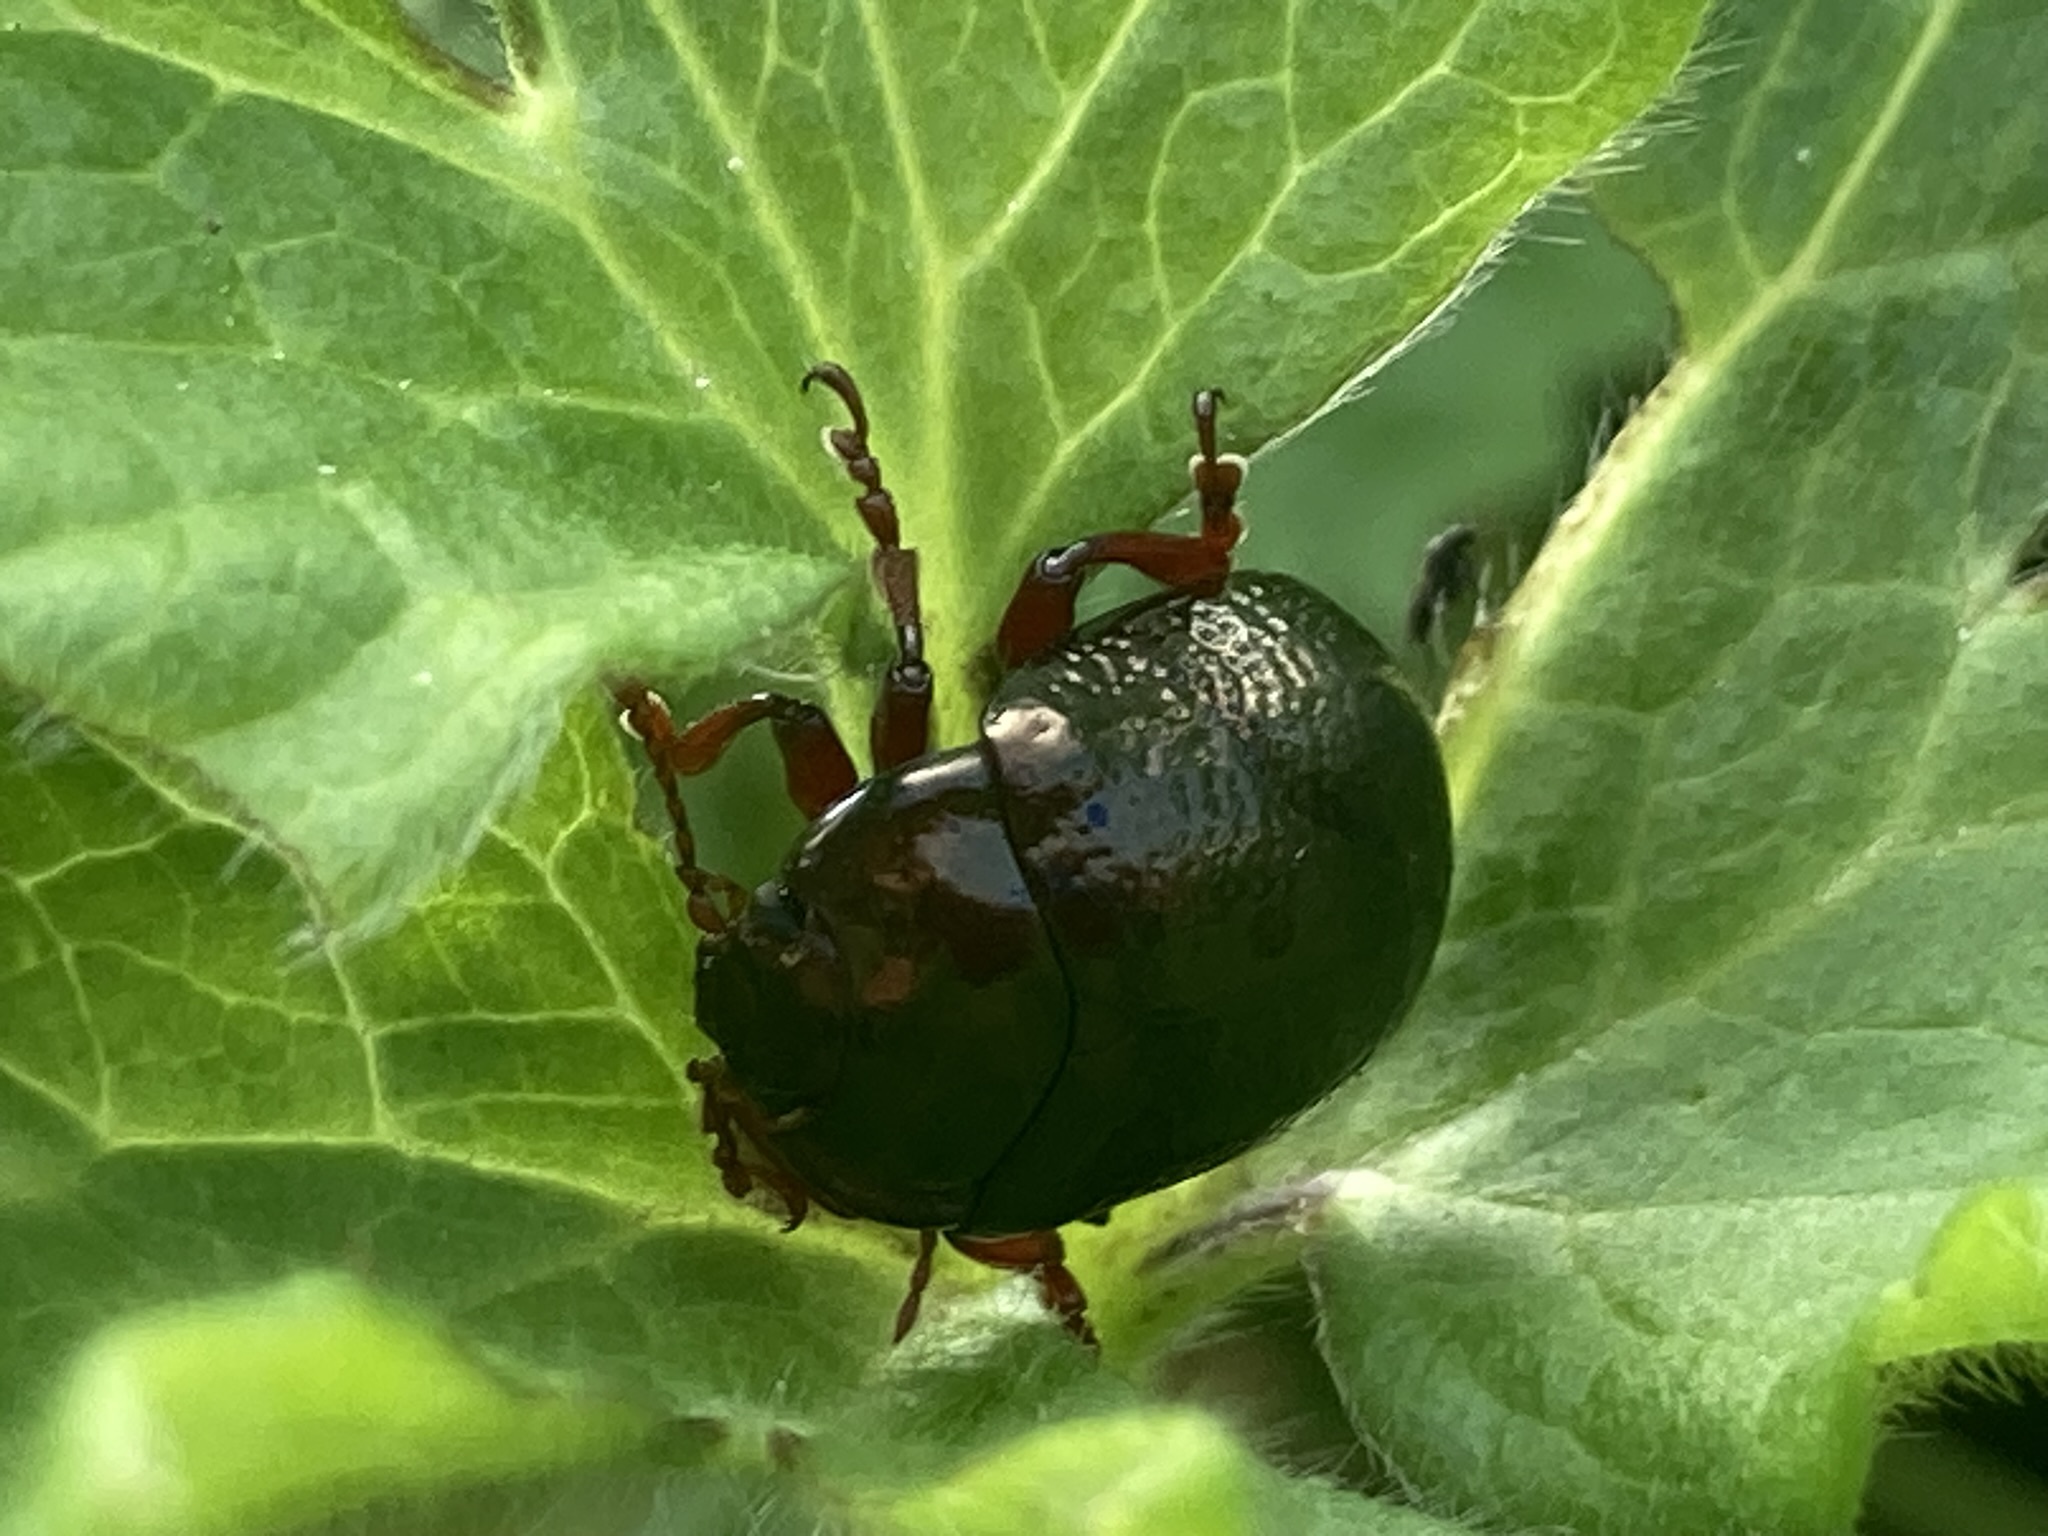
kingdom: Animalia
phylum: Arthropoda
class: Insecta
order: Coleoptera
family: Chrysomelidae
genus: Chrysolina
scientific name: Chrysolina bankii
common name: Leaf beetle
